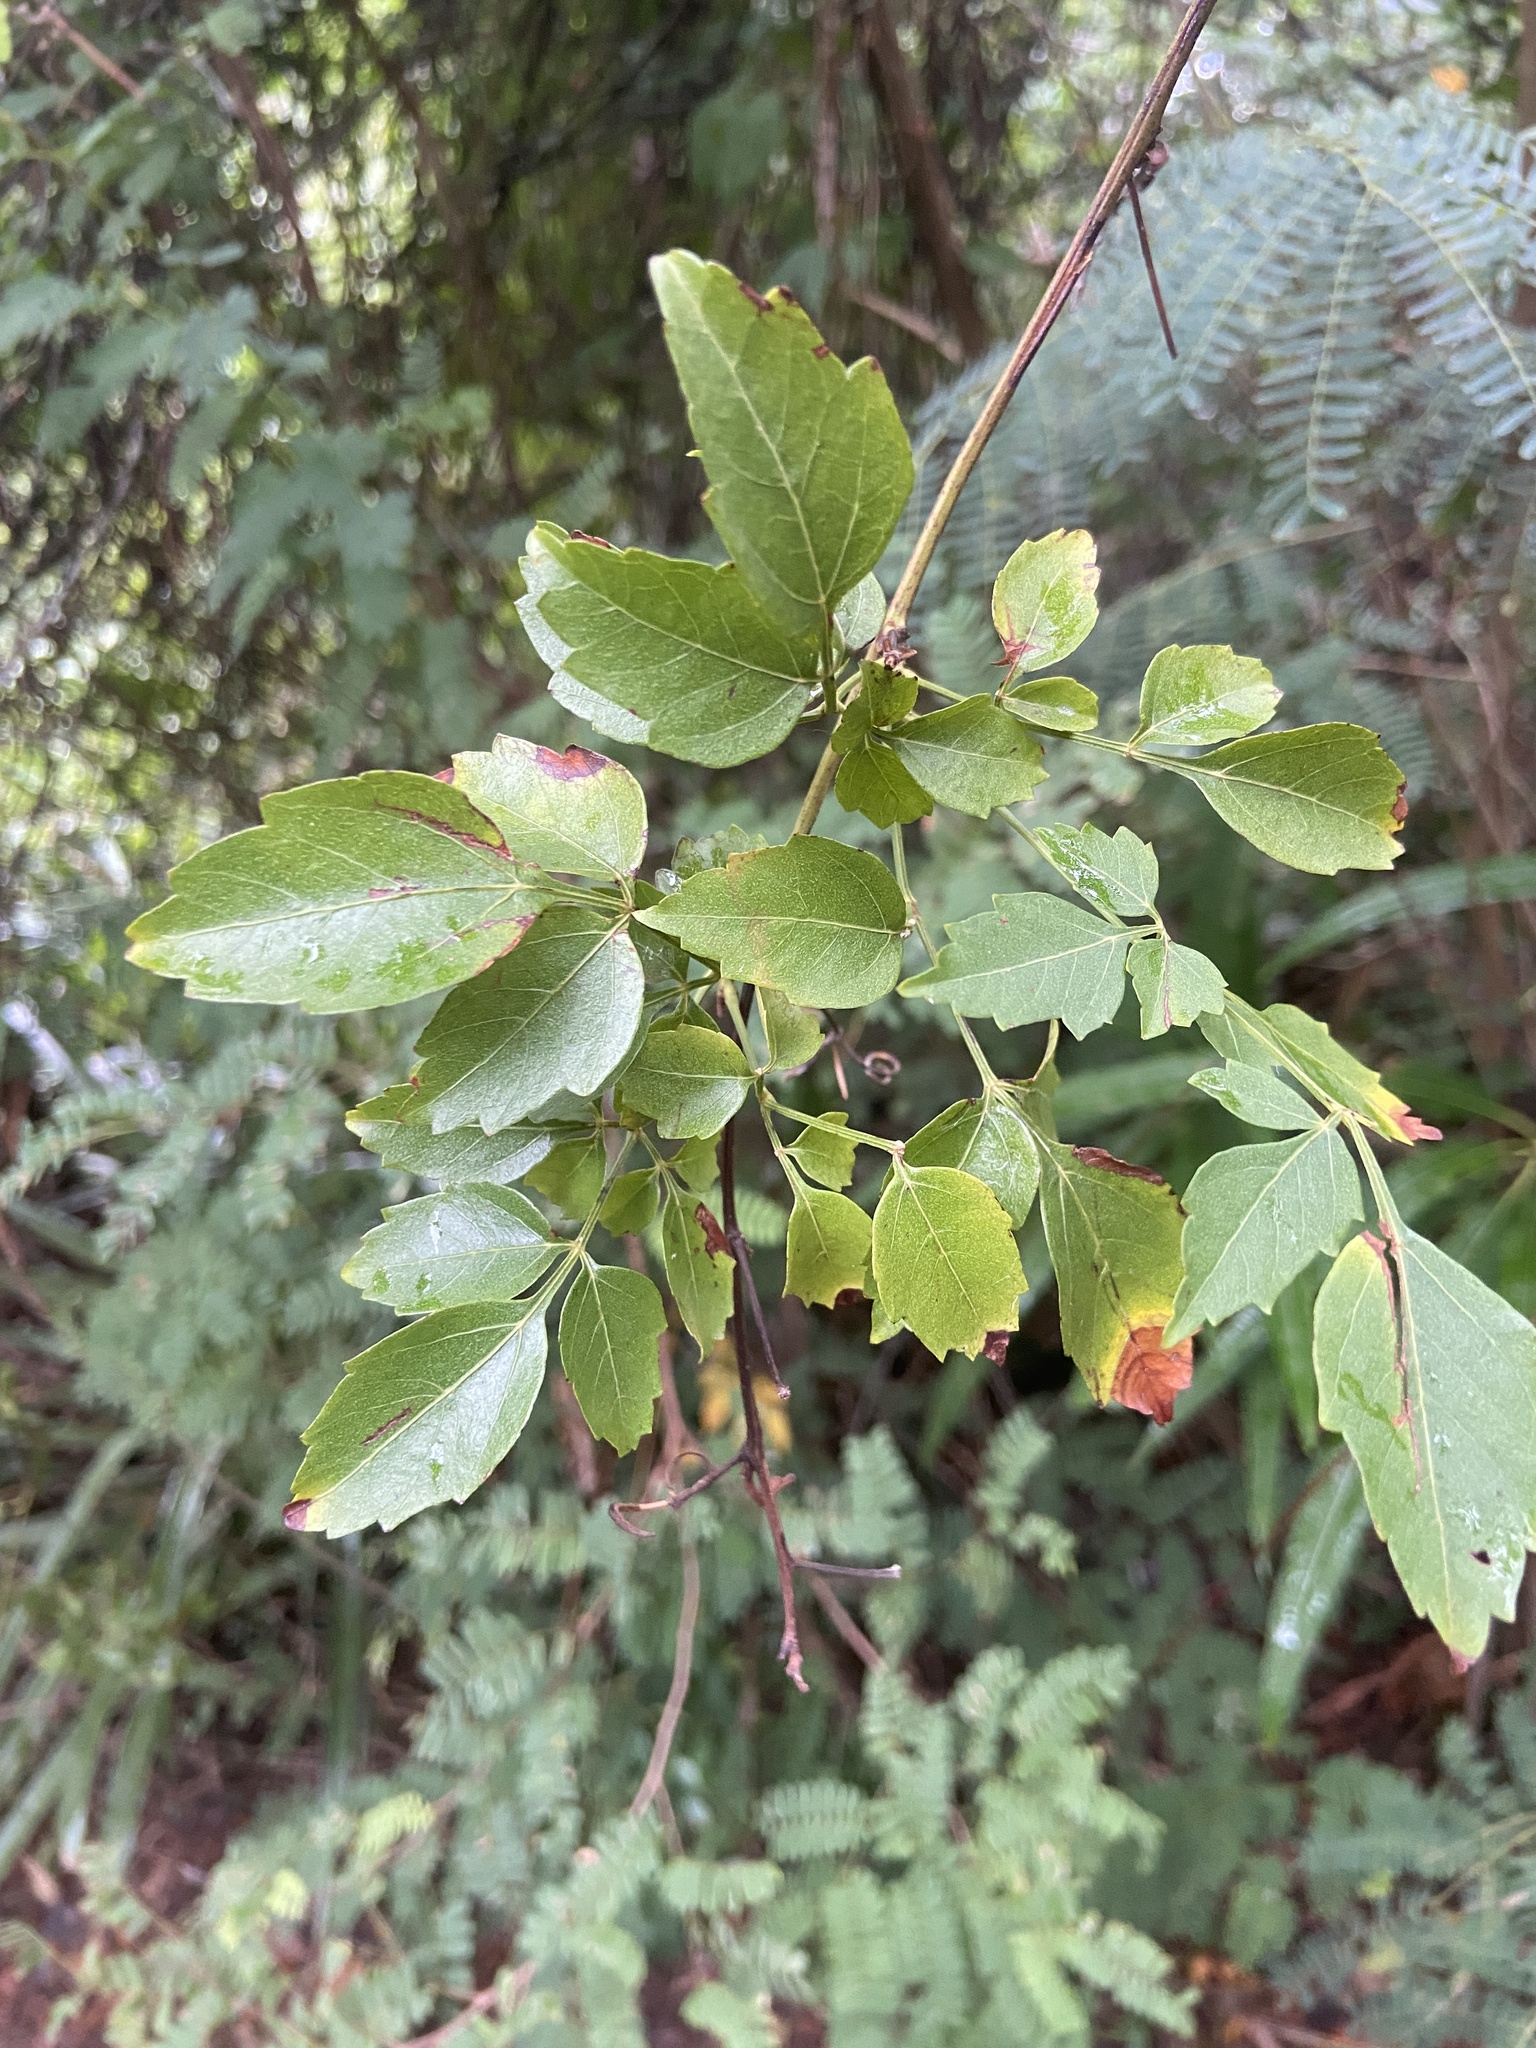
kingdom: Plantae
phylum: Tracheophyta
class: Magnoliopsida
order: Sapindales
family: Sapindaceae
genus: Serjania
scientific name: Serjania lucida
